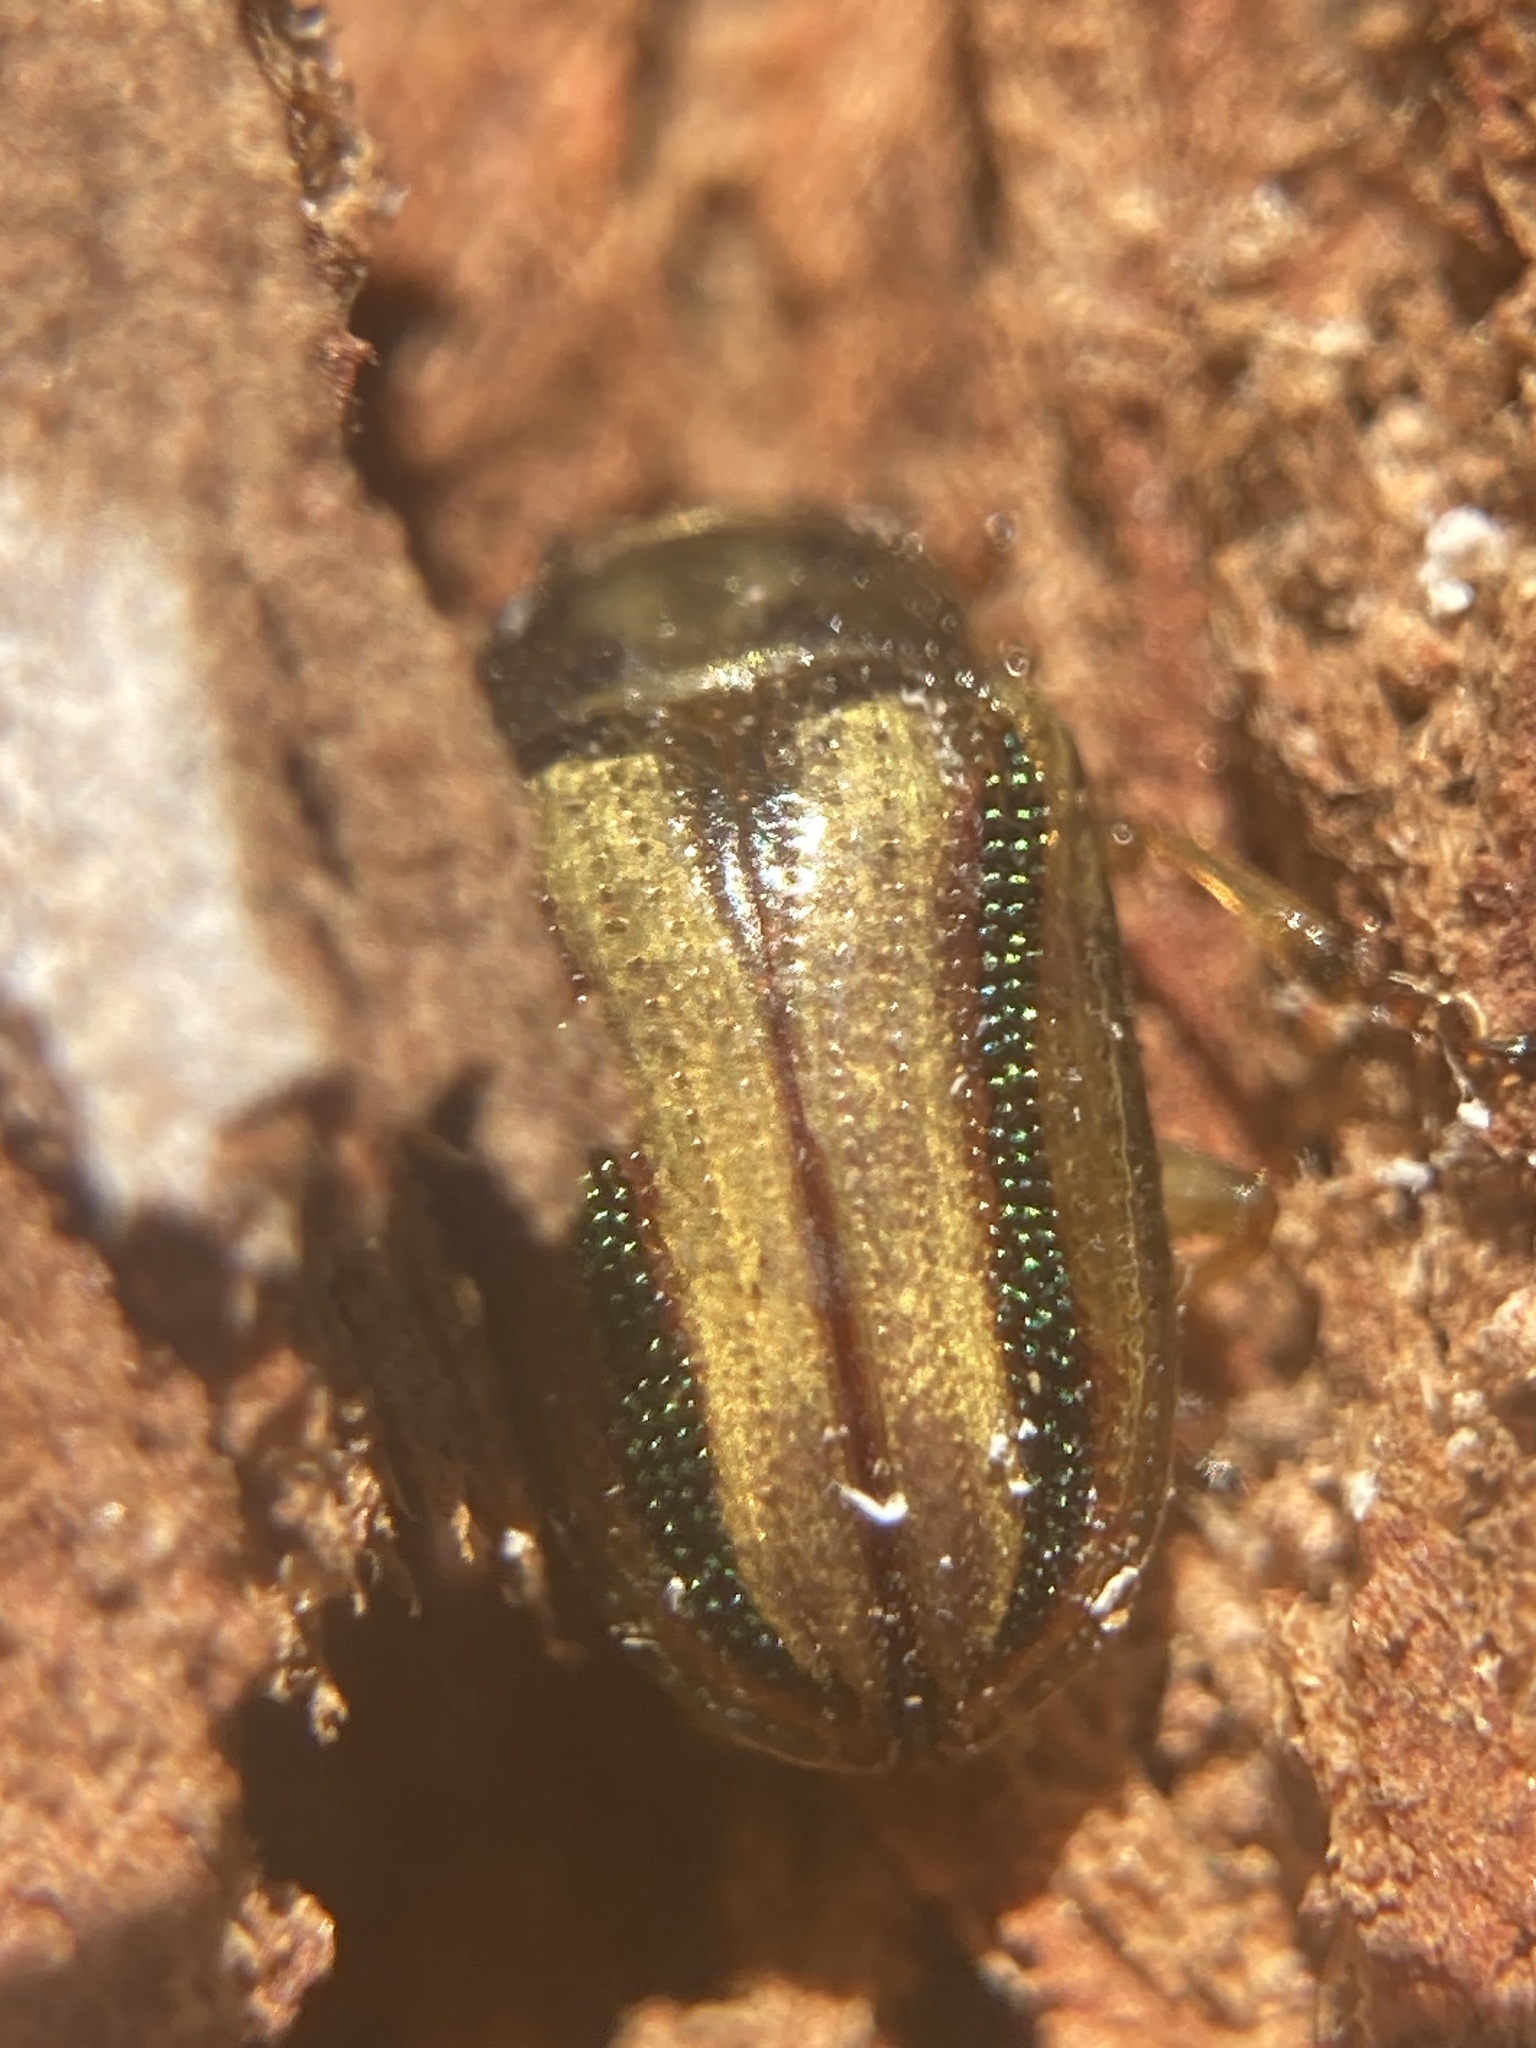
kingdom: Animalia
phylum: Arthropoda
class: Insecta
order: Coleoptera
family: Chrysomelidae
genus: Calomela
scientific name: Calomela
